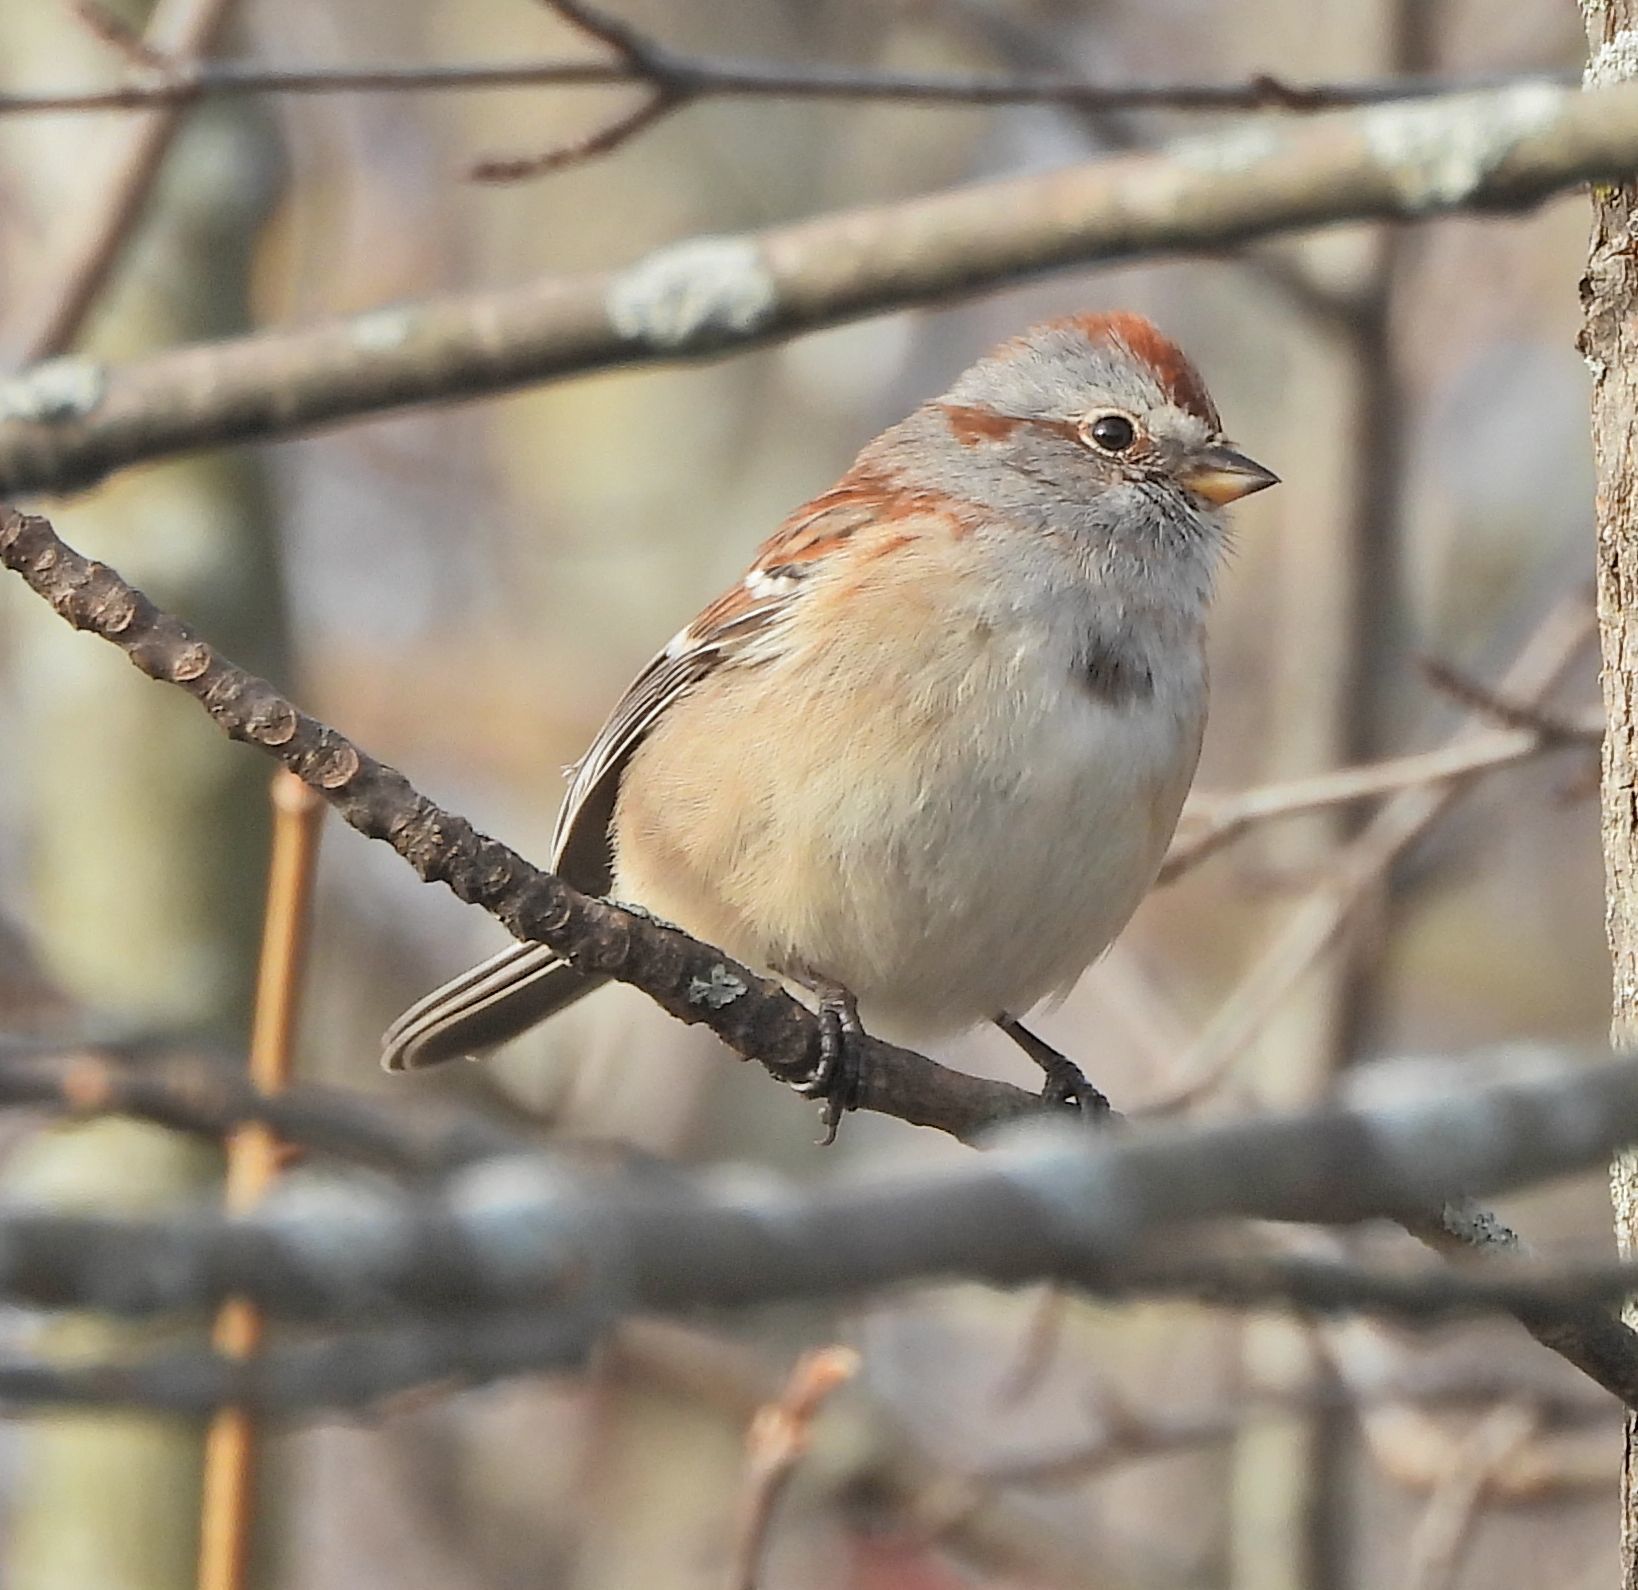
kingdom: Animalia
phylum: Chordata
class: Aves
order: Passeriformes
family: Passerellidae
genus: Spizelloides
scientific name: Spizelloides arborea
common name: American tree sparrow
